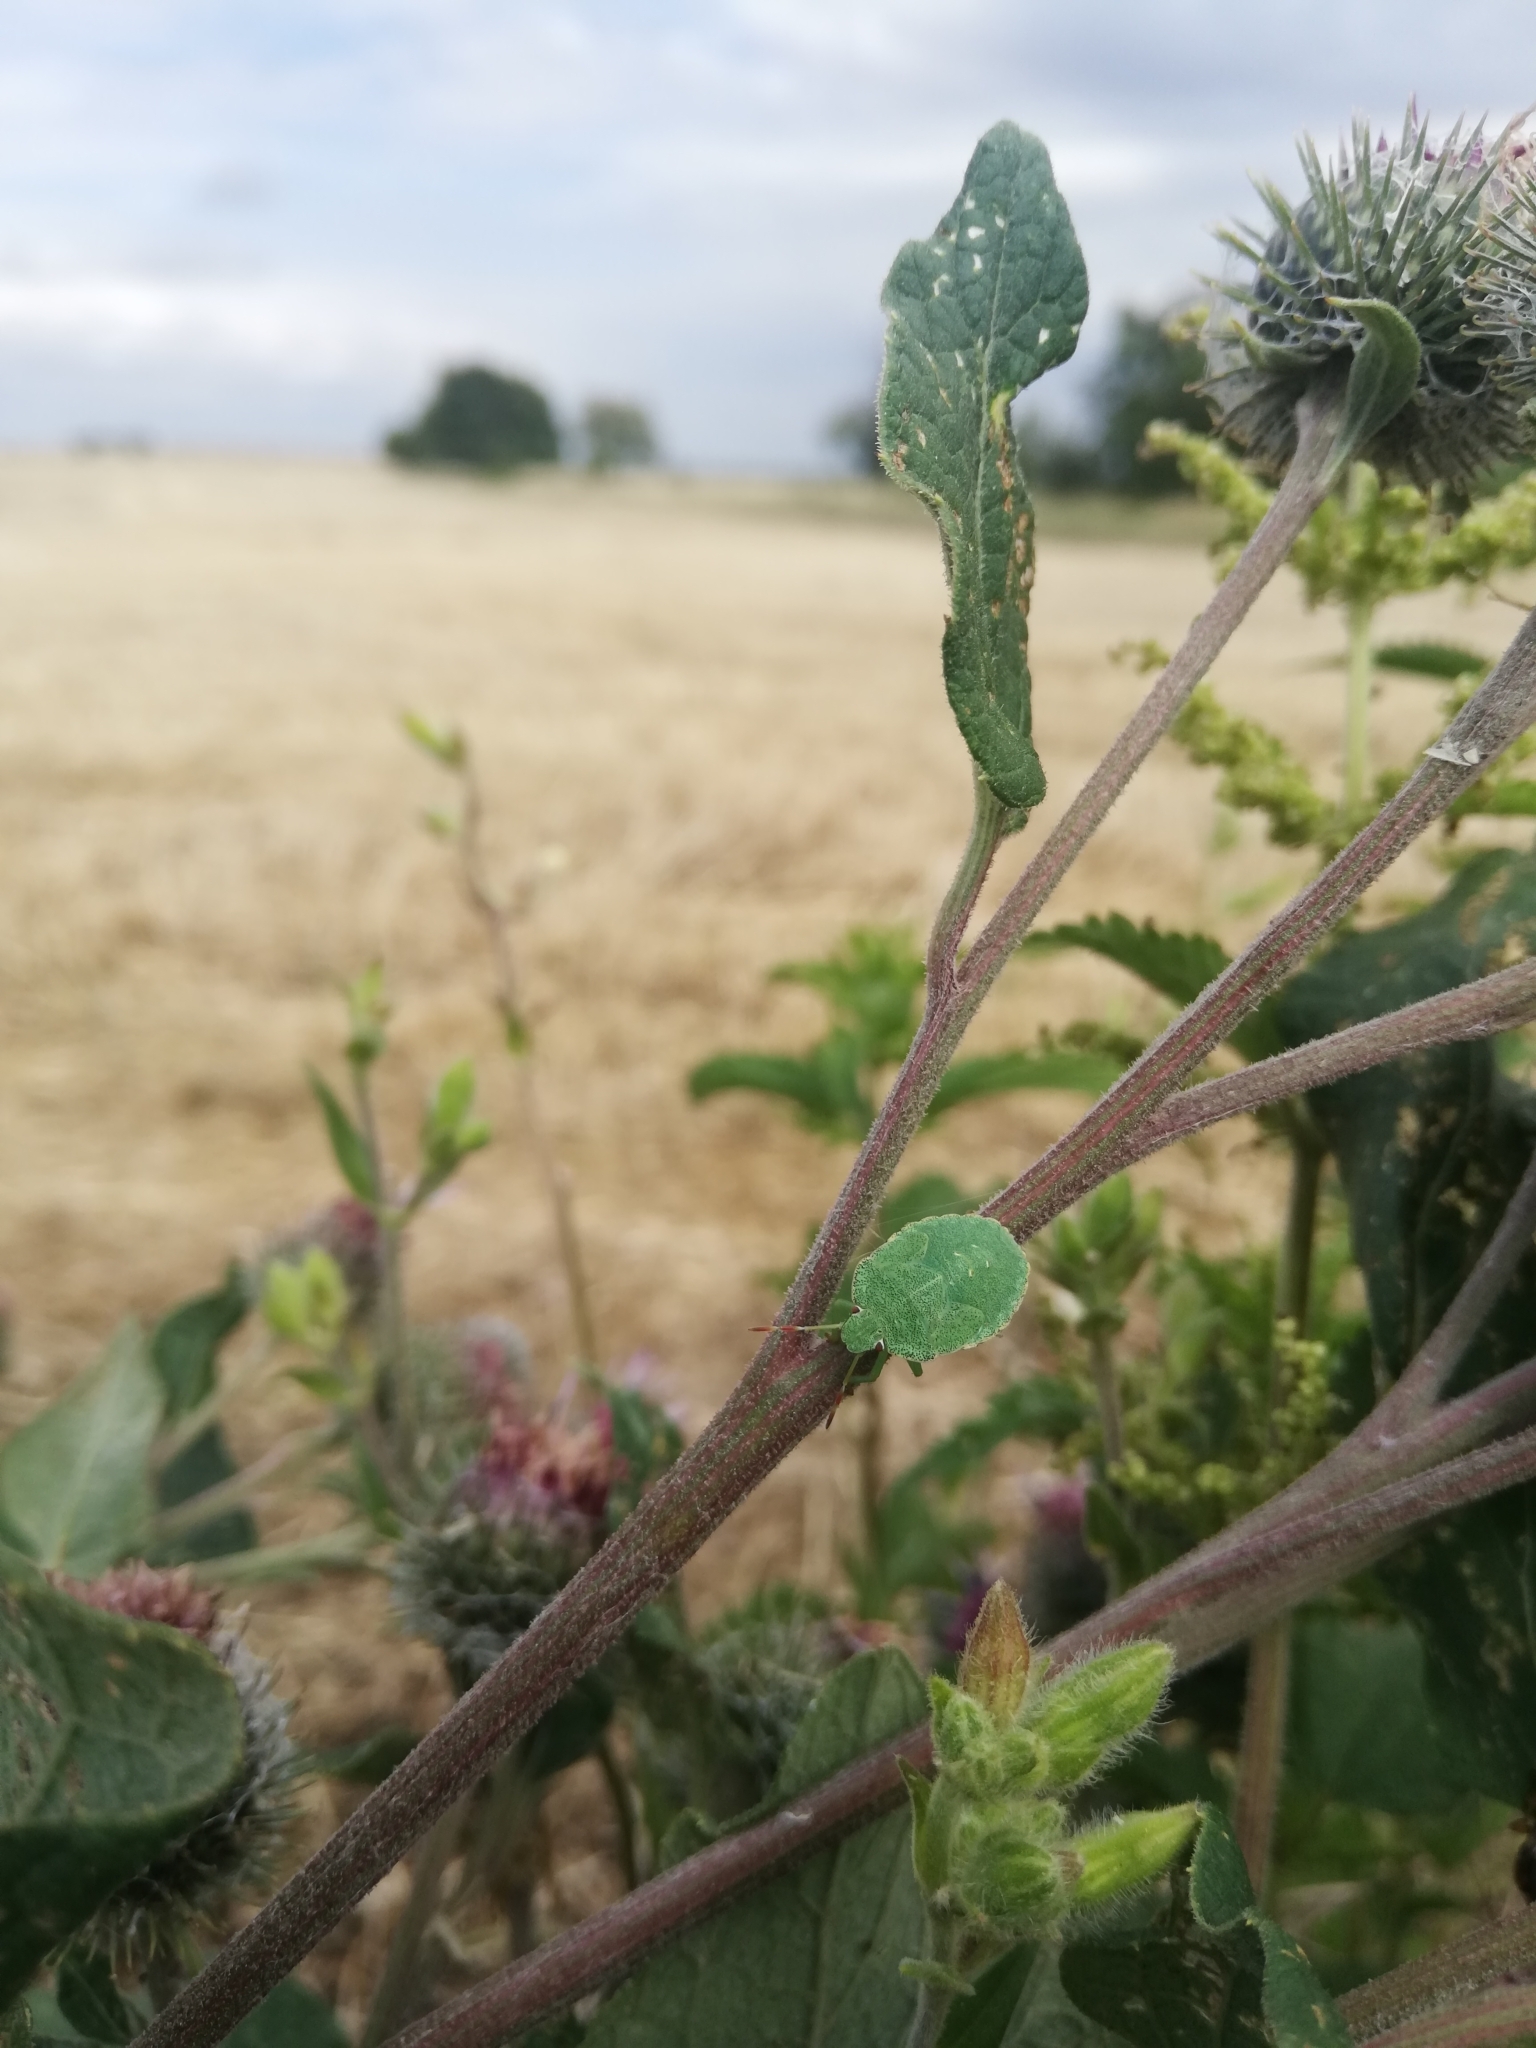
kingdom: Animalia
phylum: Arthropoda
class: Insecta
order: Hemiptera
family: Pentatomidae
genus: Palomena
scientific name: Palomena prasina
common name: Green shieldbug
